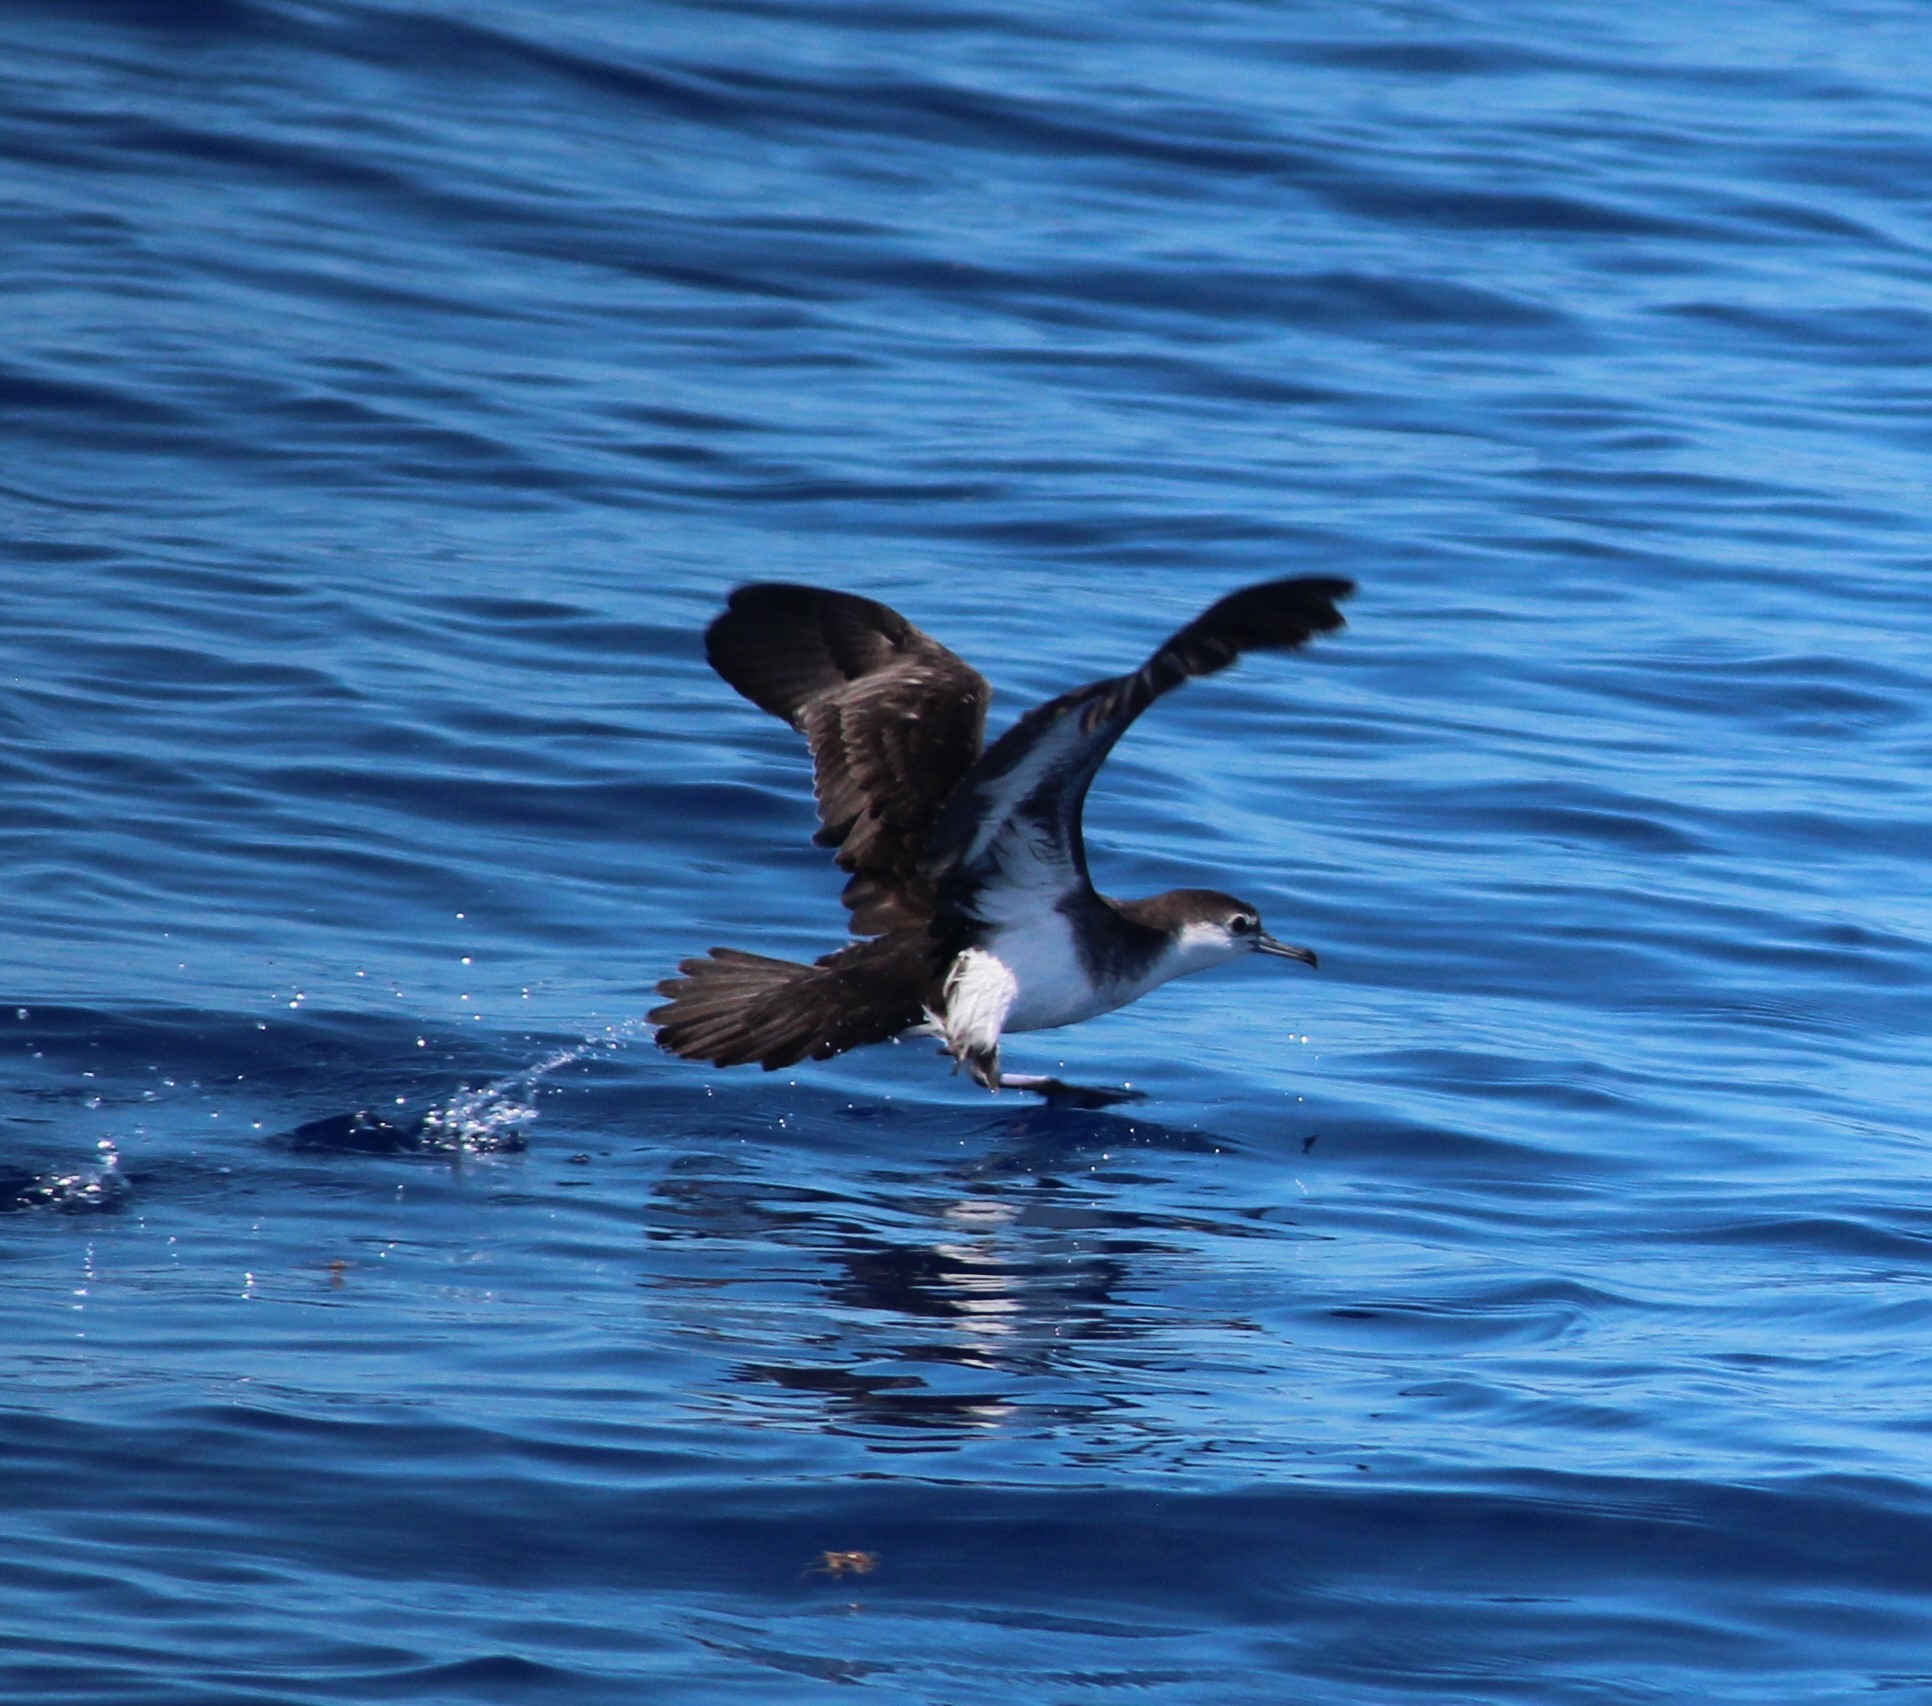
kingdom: Animalia
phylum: Chordata
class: Aves
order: Procellariiformes
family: Procellariidae
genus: Puffinus
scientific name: Puffinus lherminieri
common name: Audubon's shearwater
